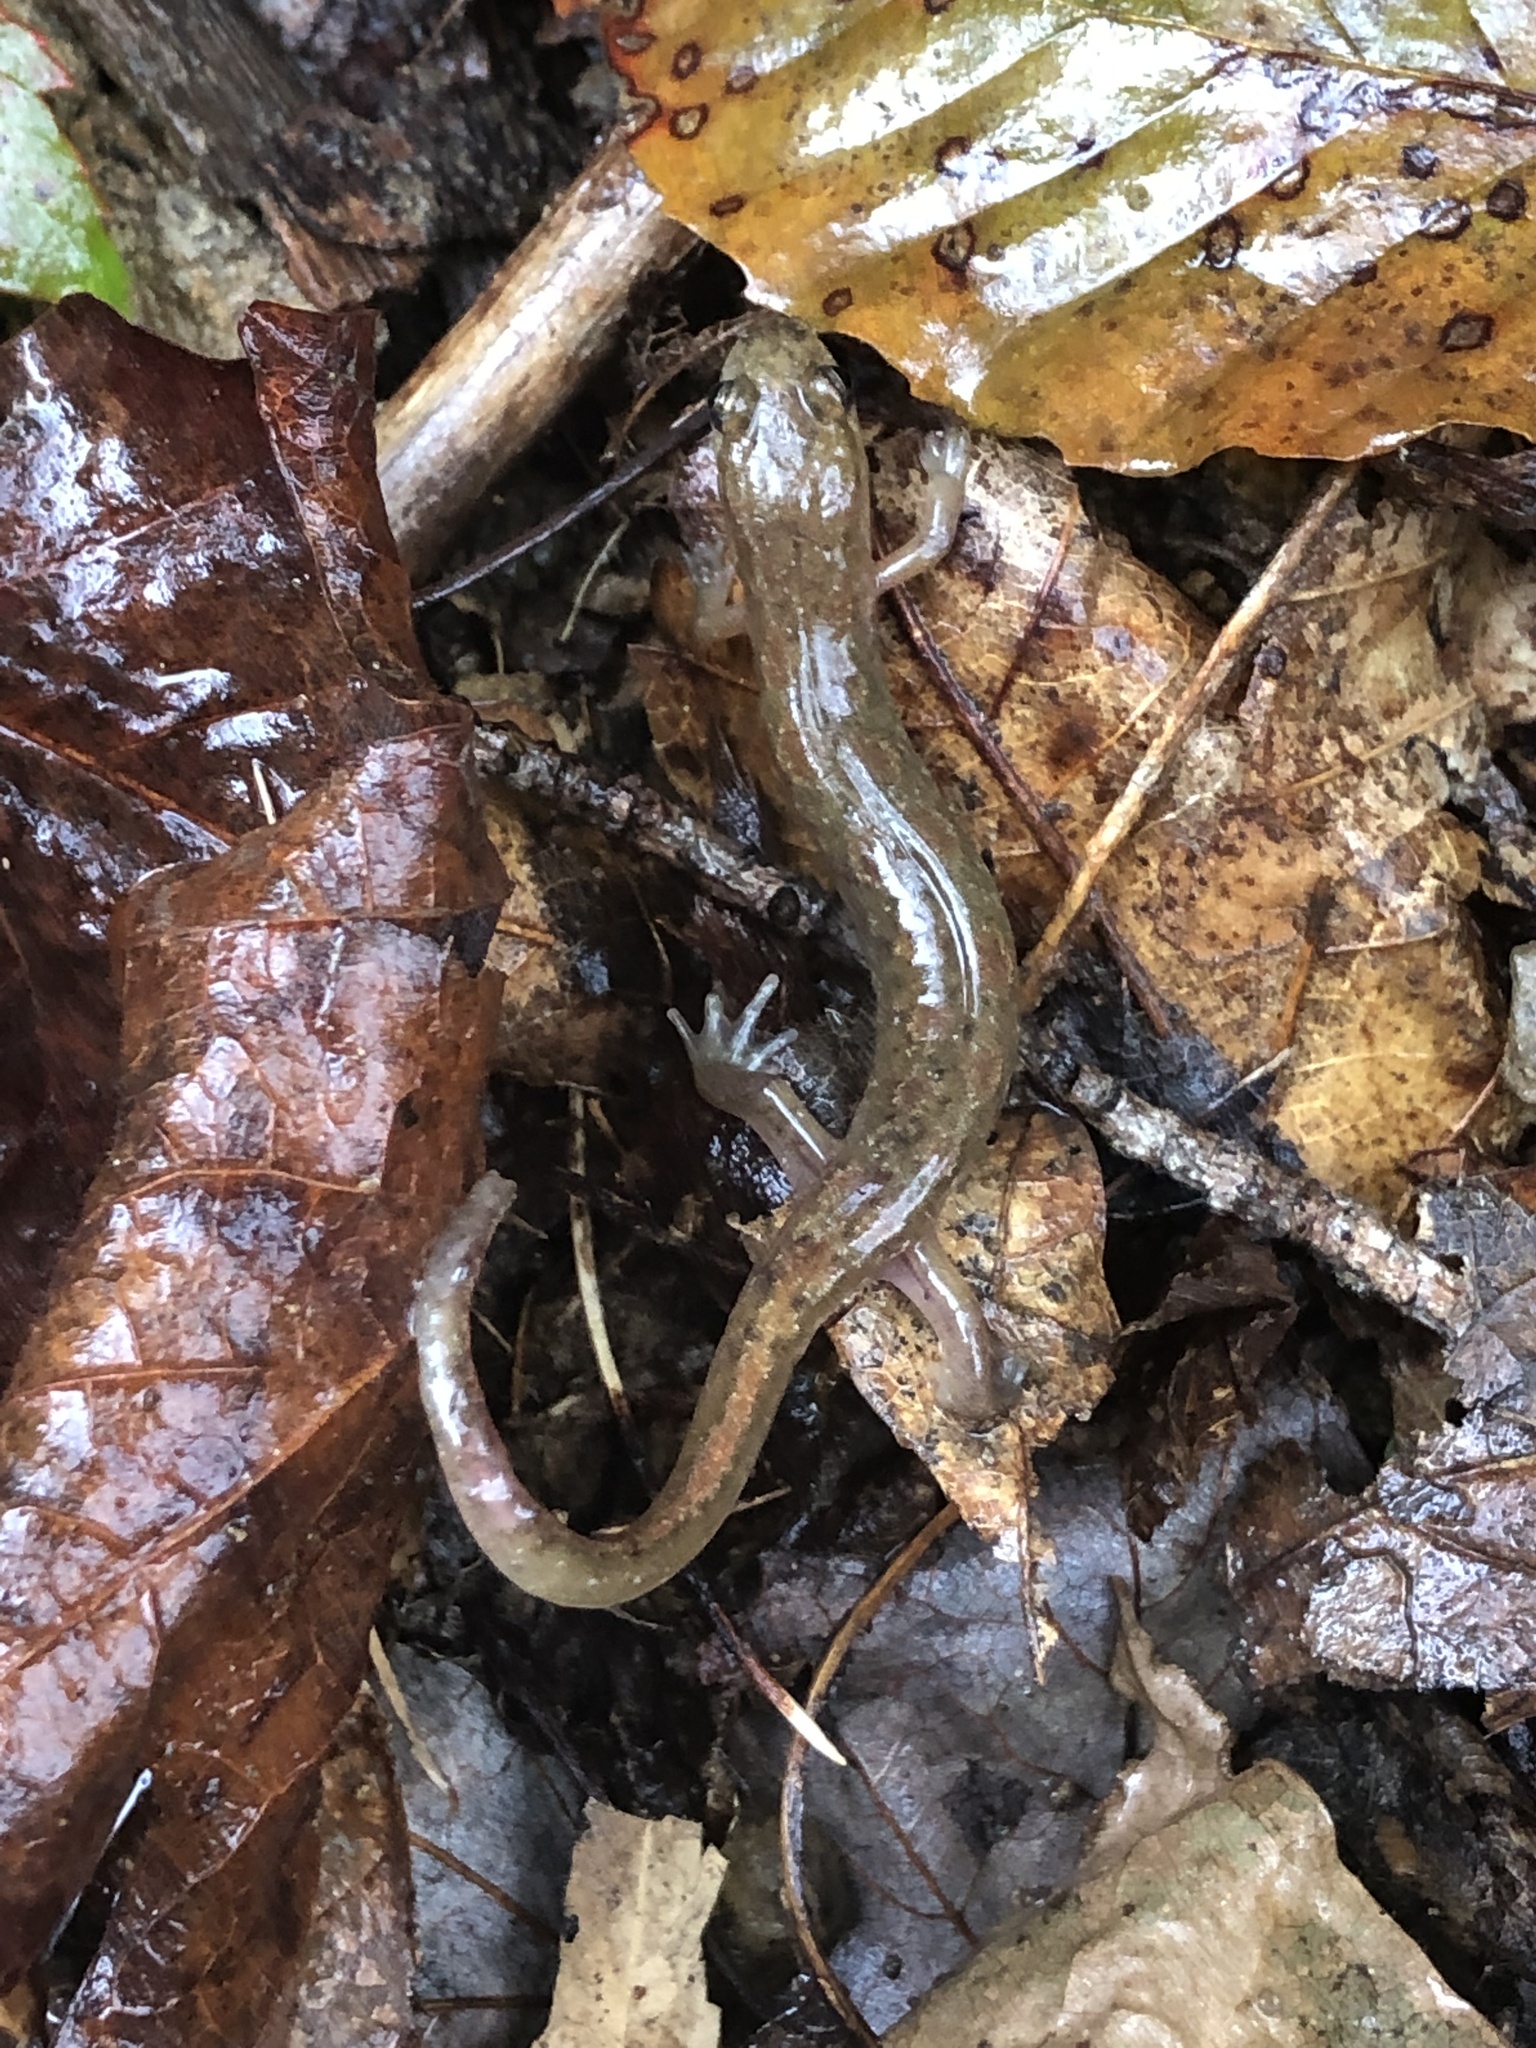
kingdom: Animalia
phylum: Chordata
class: Amphibia
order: Caudata
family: Plethodontidae
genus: Desmognathus
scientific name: Desmognathus fuscus
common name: Northern dusky salamander
